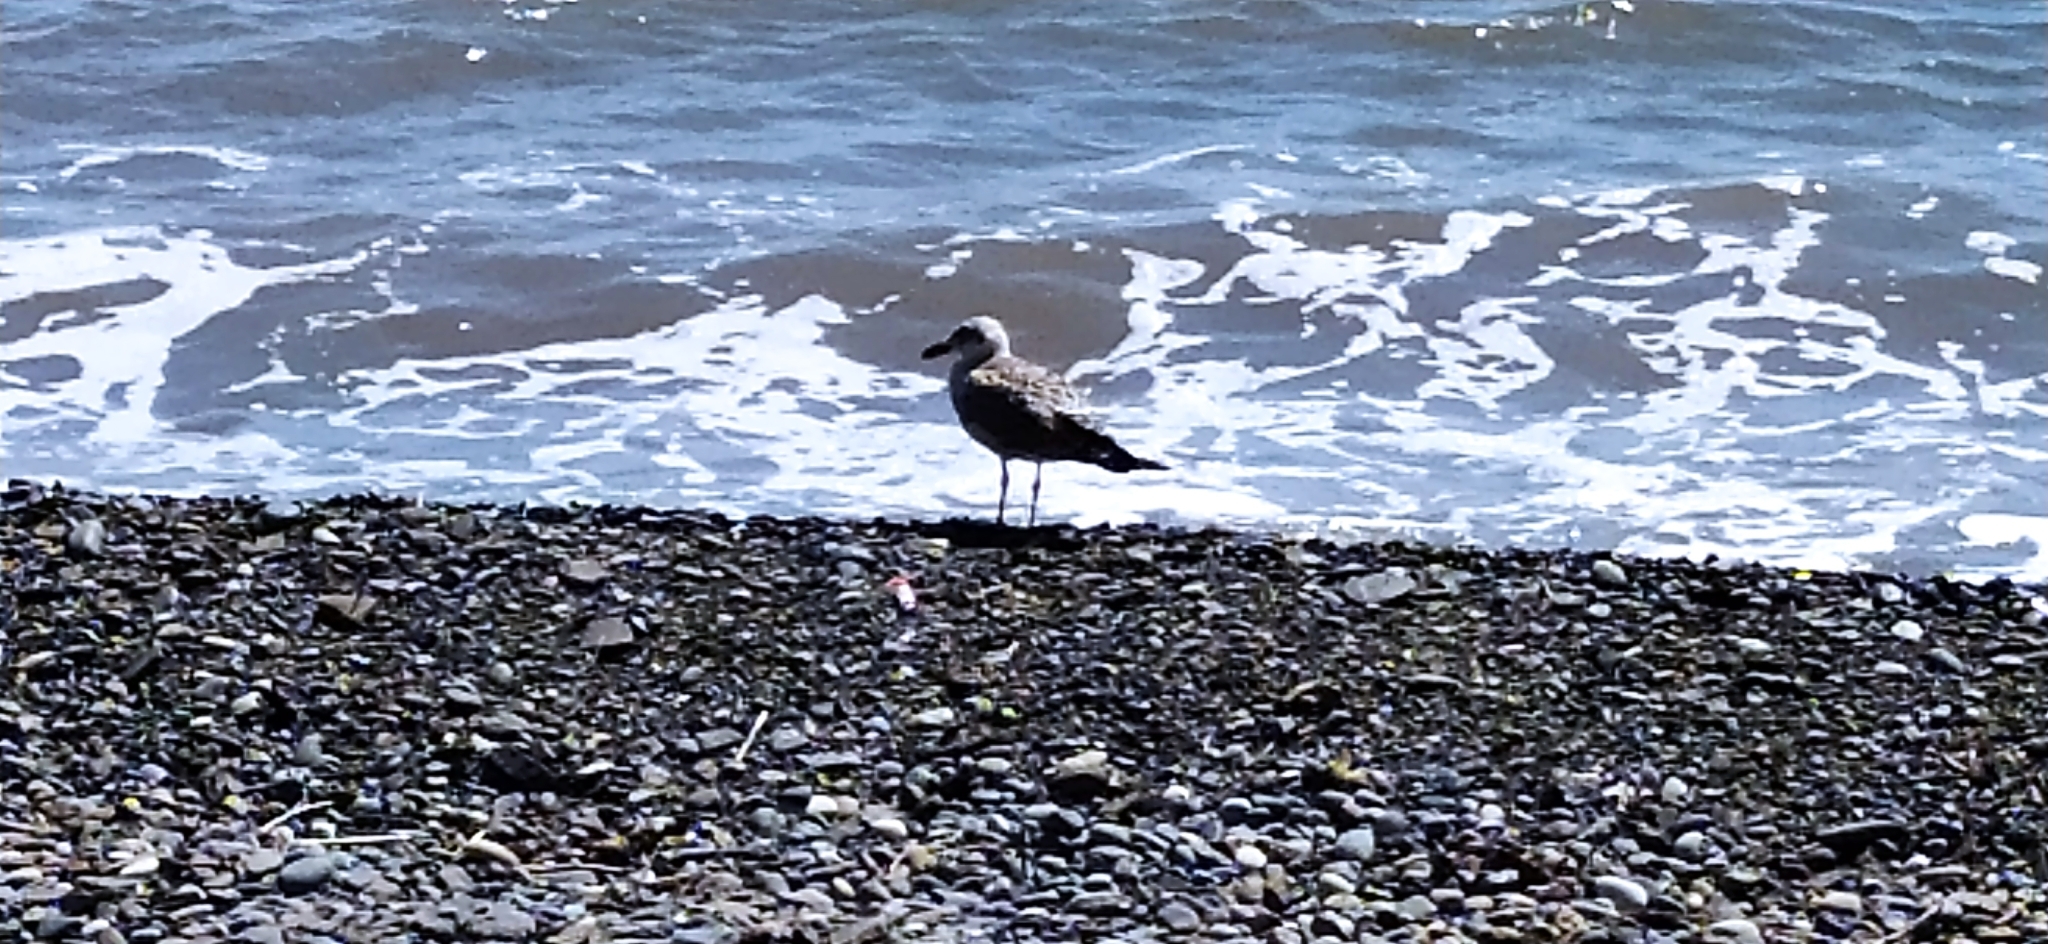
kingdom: Animalia
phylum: Chordata
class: Aves
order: Charadriiformes
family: Laridae
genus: Larus
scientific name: Larus michahellis
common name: Yellow-legged gull
